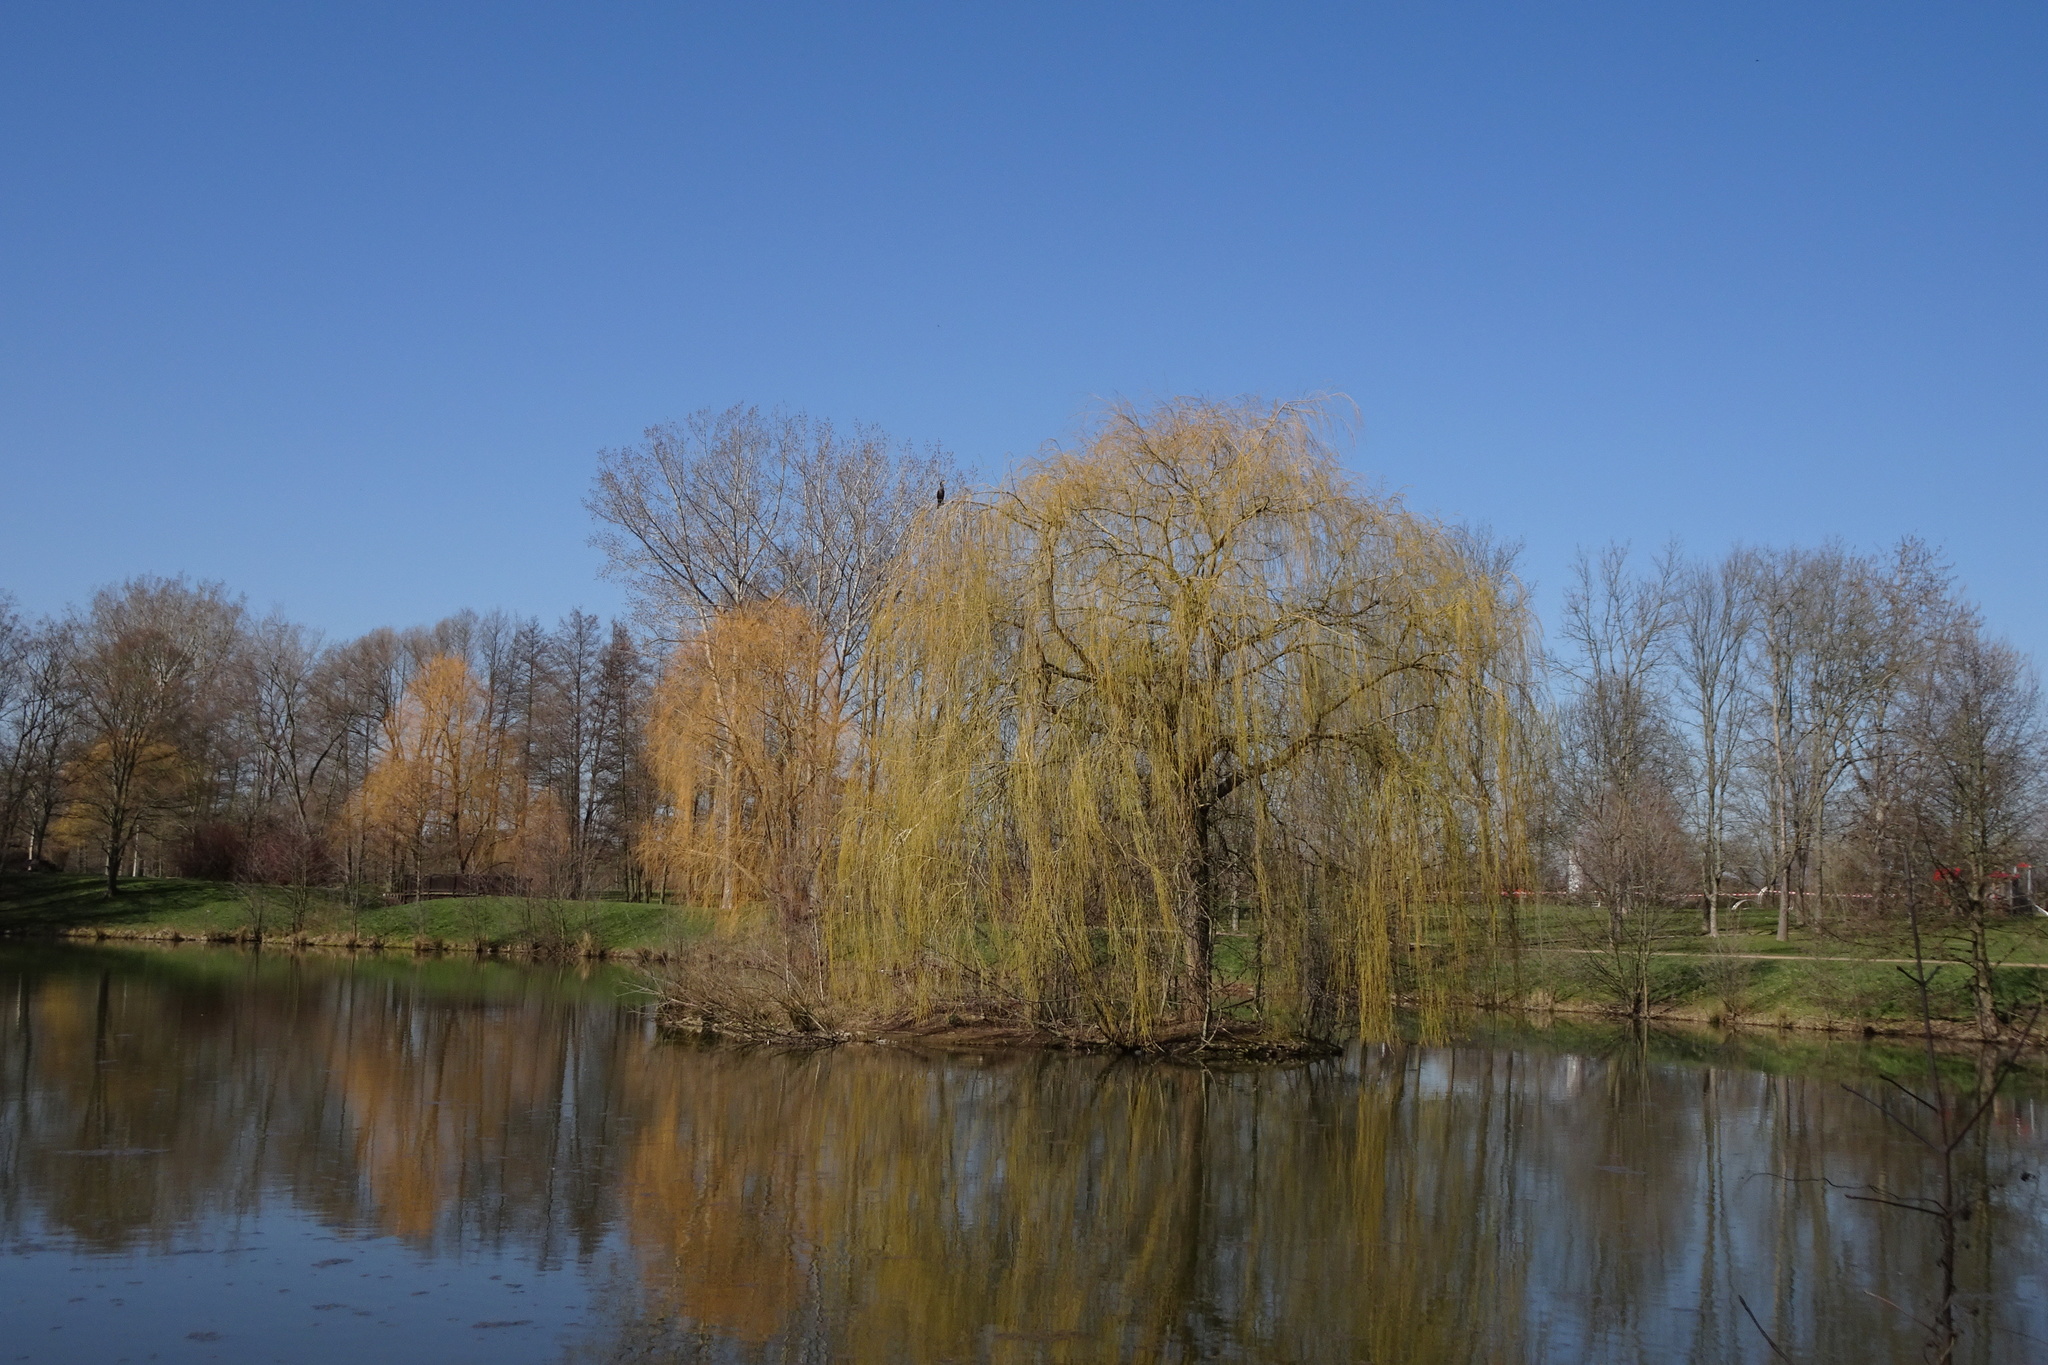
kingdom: Animalia
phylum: Chordata
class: Aves
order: Suliformes
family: Phalacrocoracidae
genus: Phalacrocorax
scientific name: Phalacrocorax carbo
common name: Great cormorant
